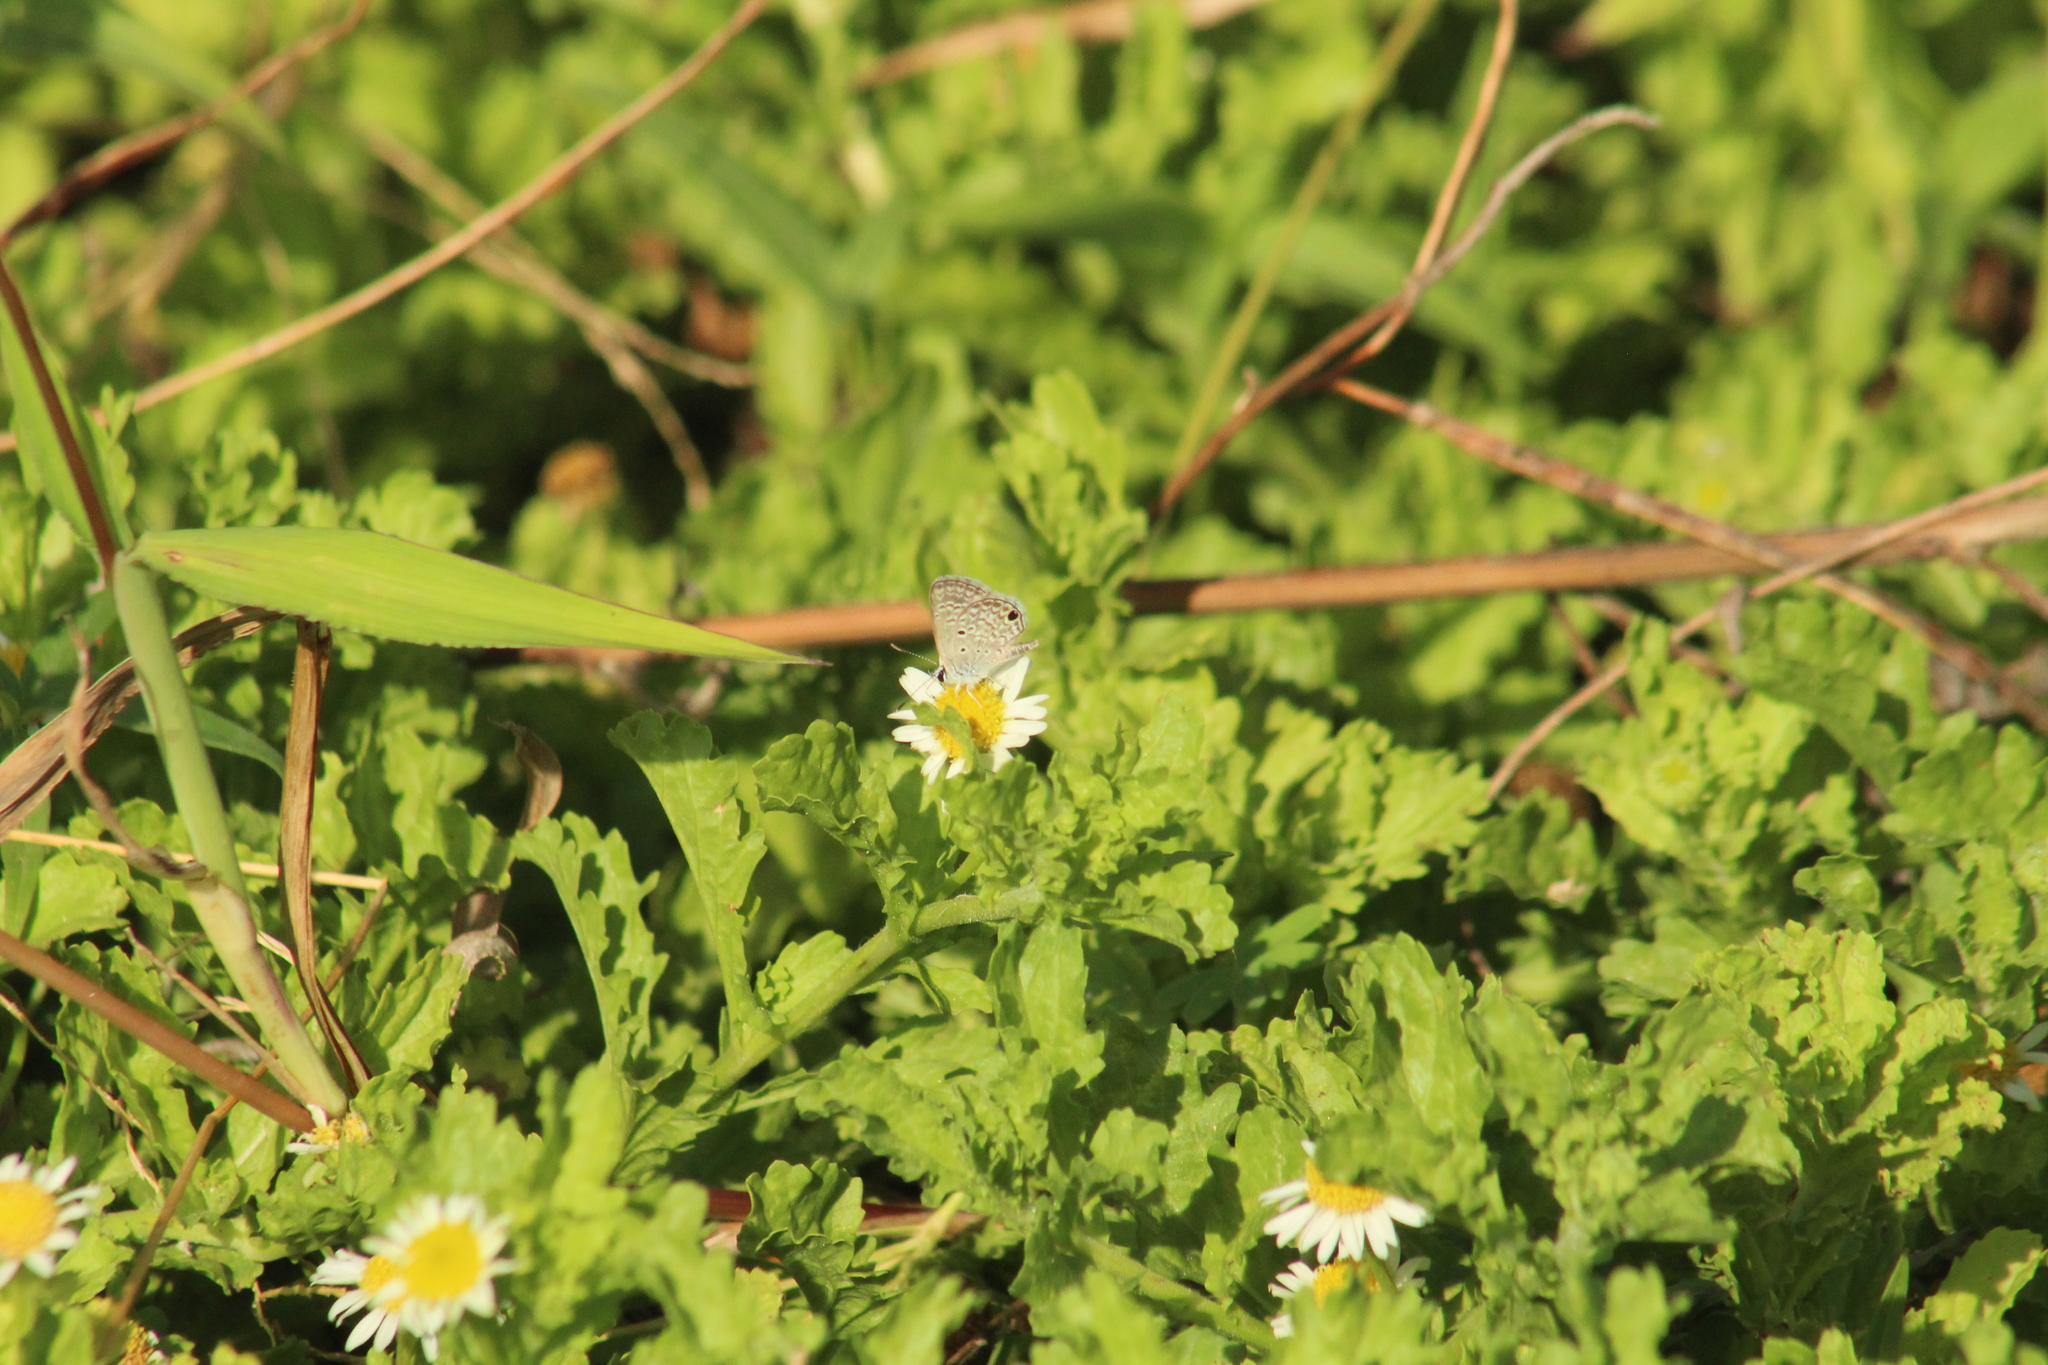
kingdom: Animalia
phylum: Arthropoda
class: Insecta
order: Lepidoptera
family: Lycaenidae
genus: Hemiargus
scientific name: Hemiargus hanno
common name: Common blue
